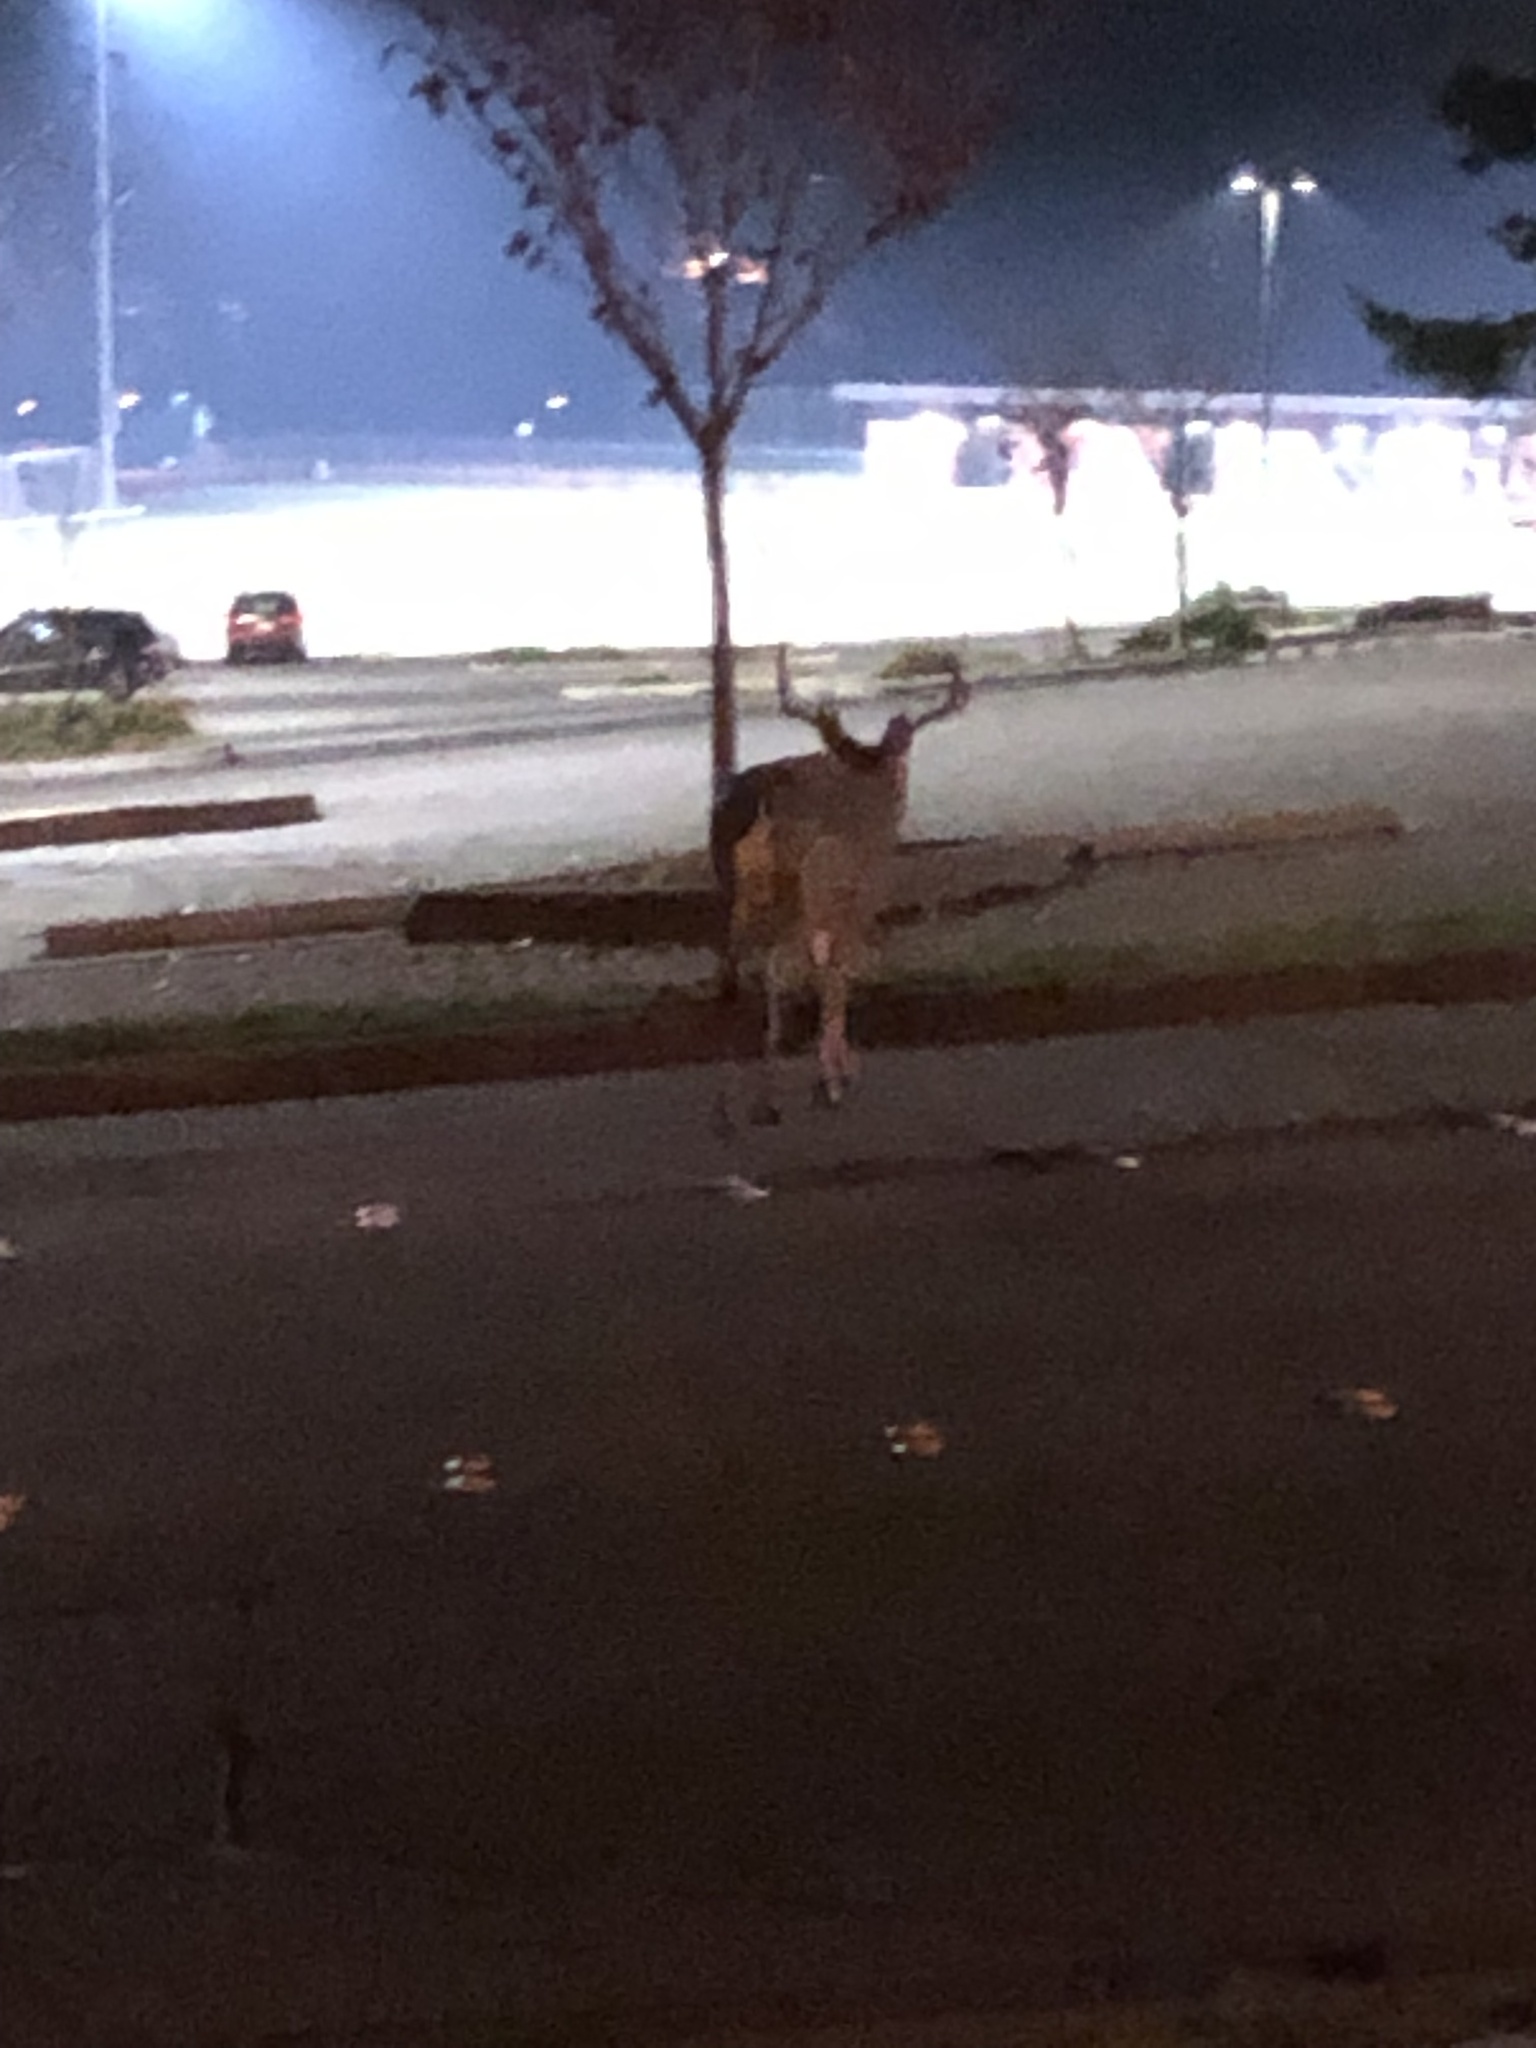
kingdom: Animalia
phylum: Chordata
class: Mammalia
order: Artiodactyla
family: Cervidae
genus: Odocoileus
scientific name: Odocoileus hemionus
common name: Mule deer
